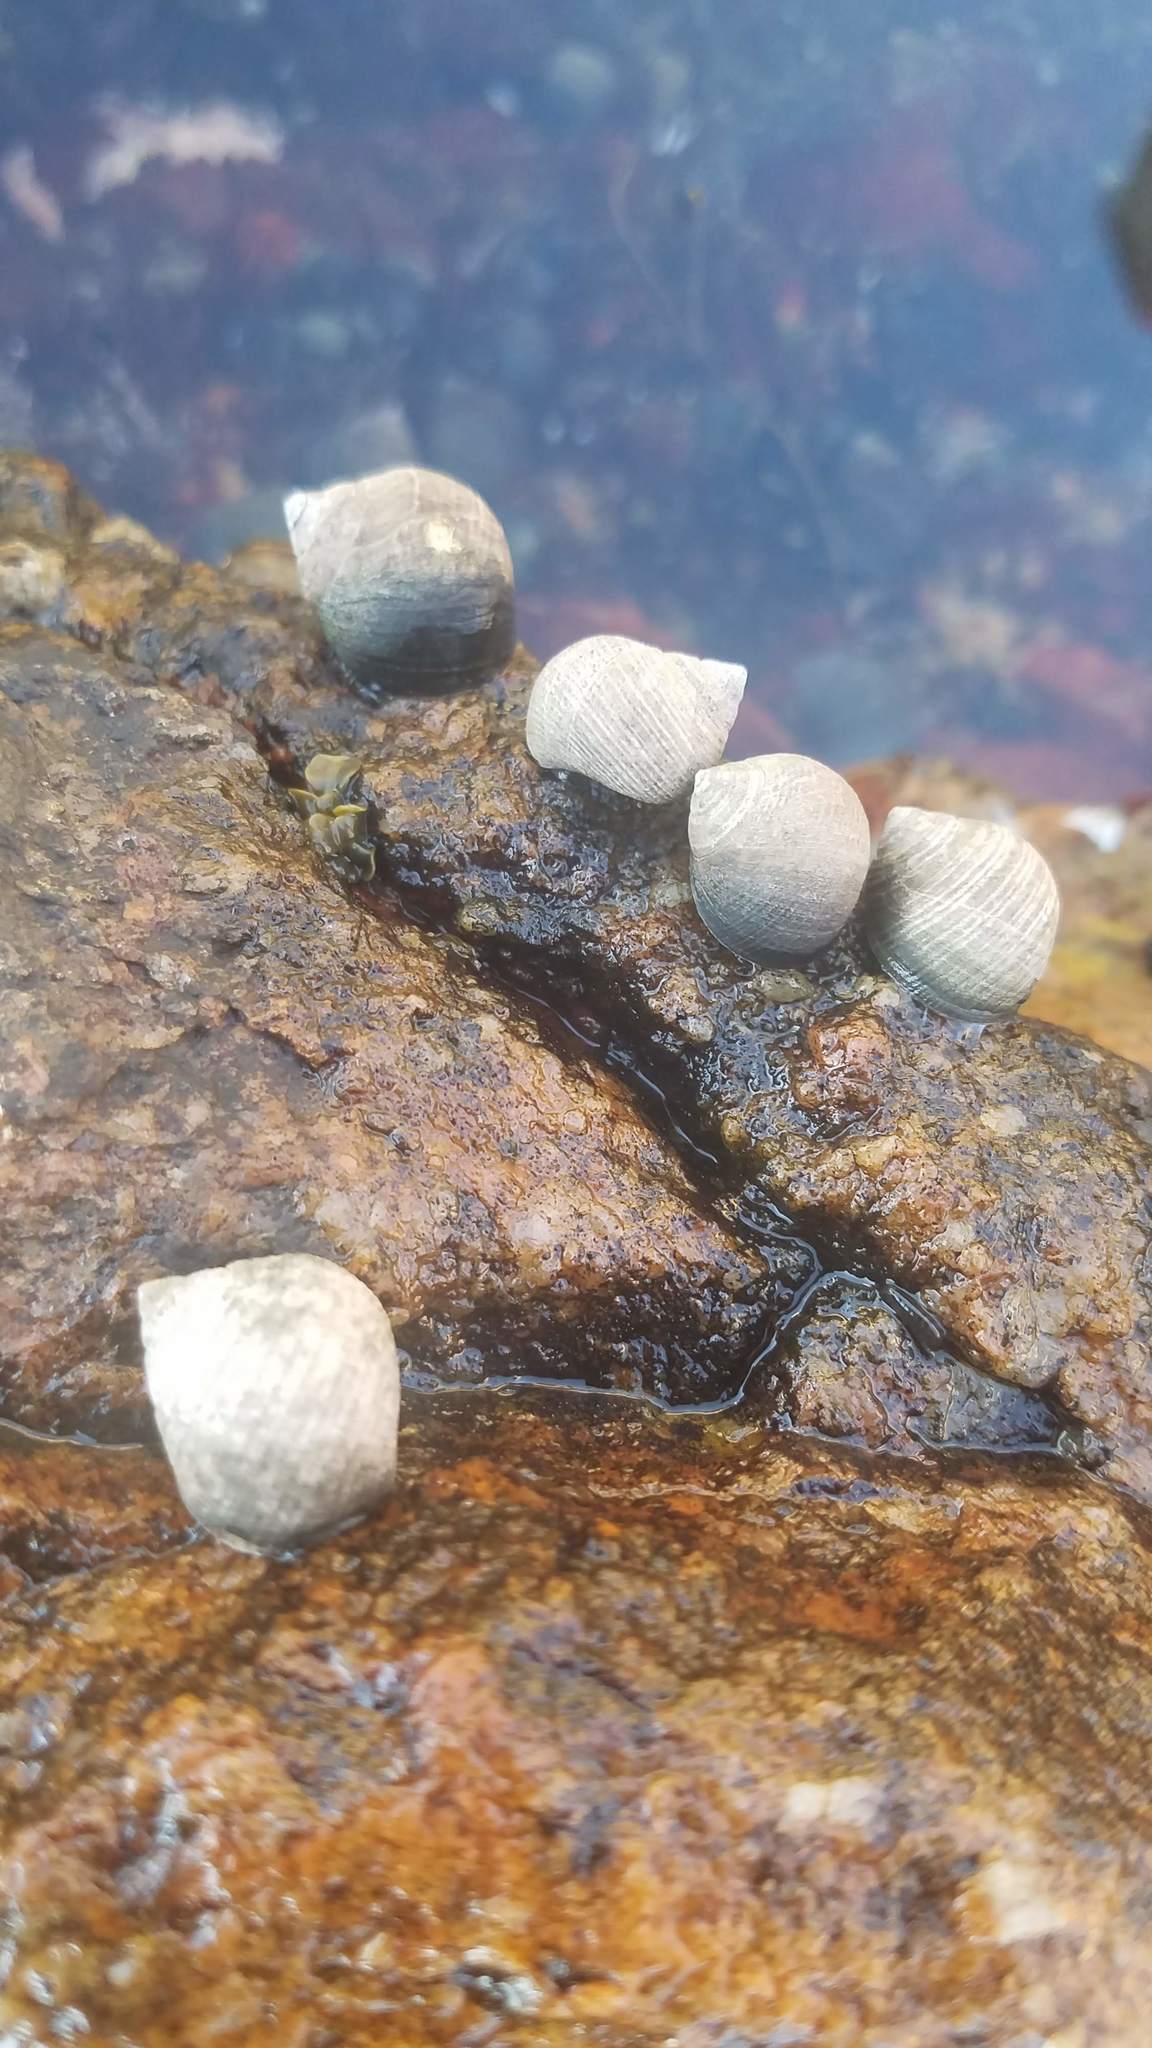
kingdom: Animalia
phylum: Mollusca
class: Gastropoda
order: Littorinimorpha
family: Littorinidae
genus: Littorina
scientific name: Littorina littorea
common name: Common periwinkle
